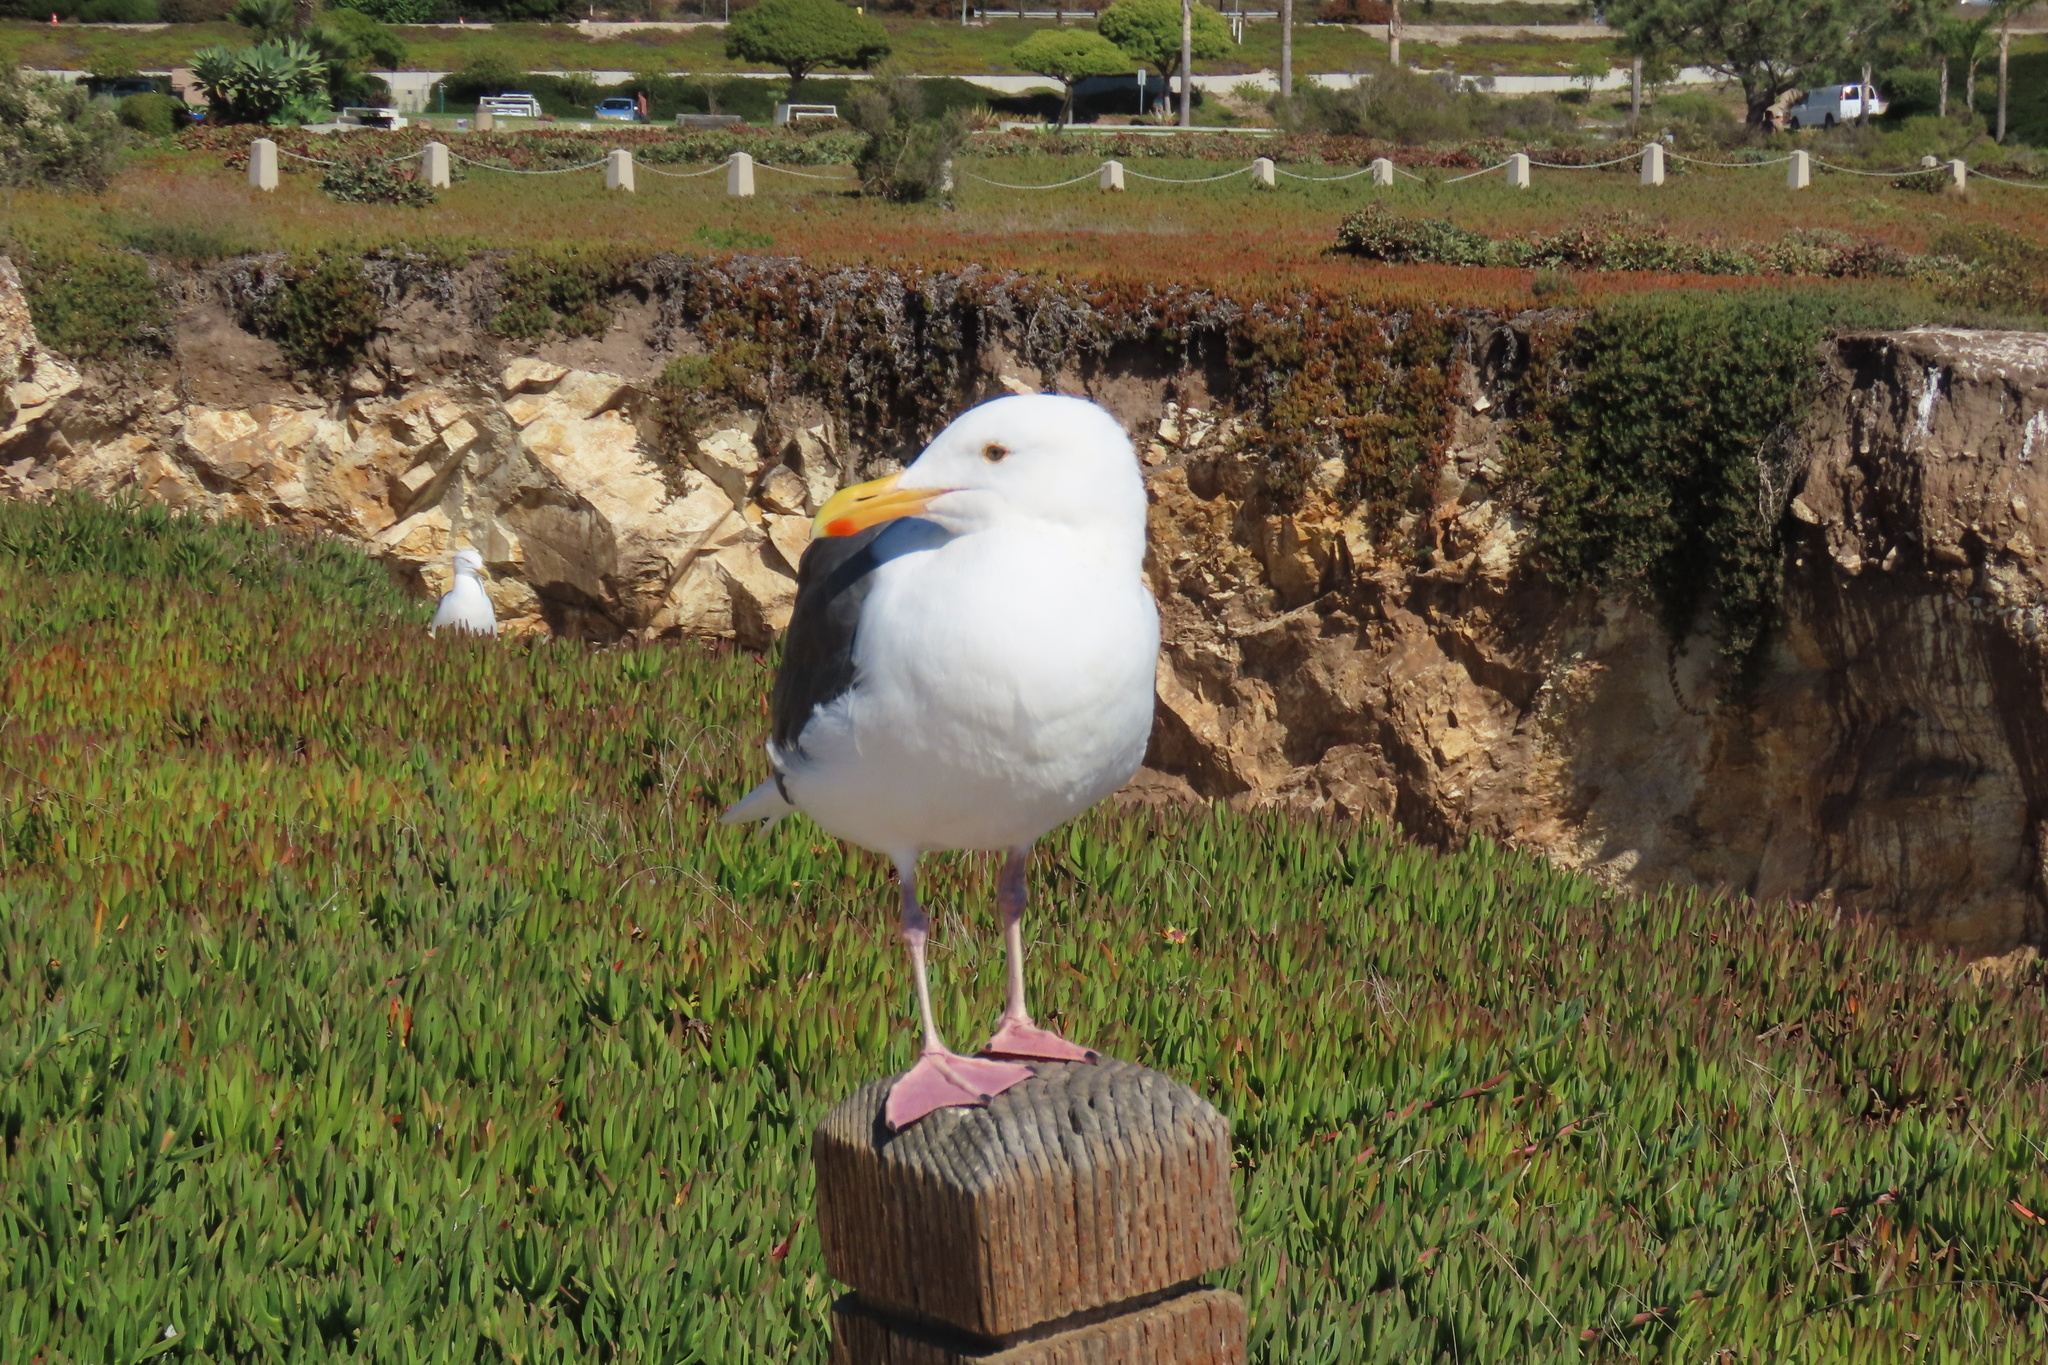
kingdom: Animalia
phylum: Chordata
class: Aves
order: Charadriiformes
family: Laridae
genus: Larus
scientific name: Larus occidentalis
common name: Western gull
